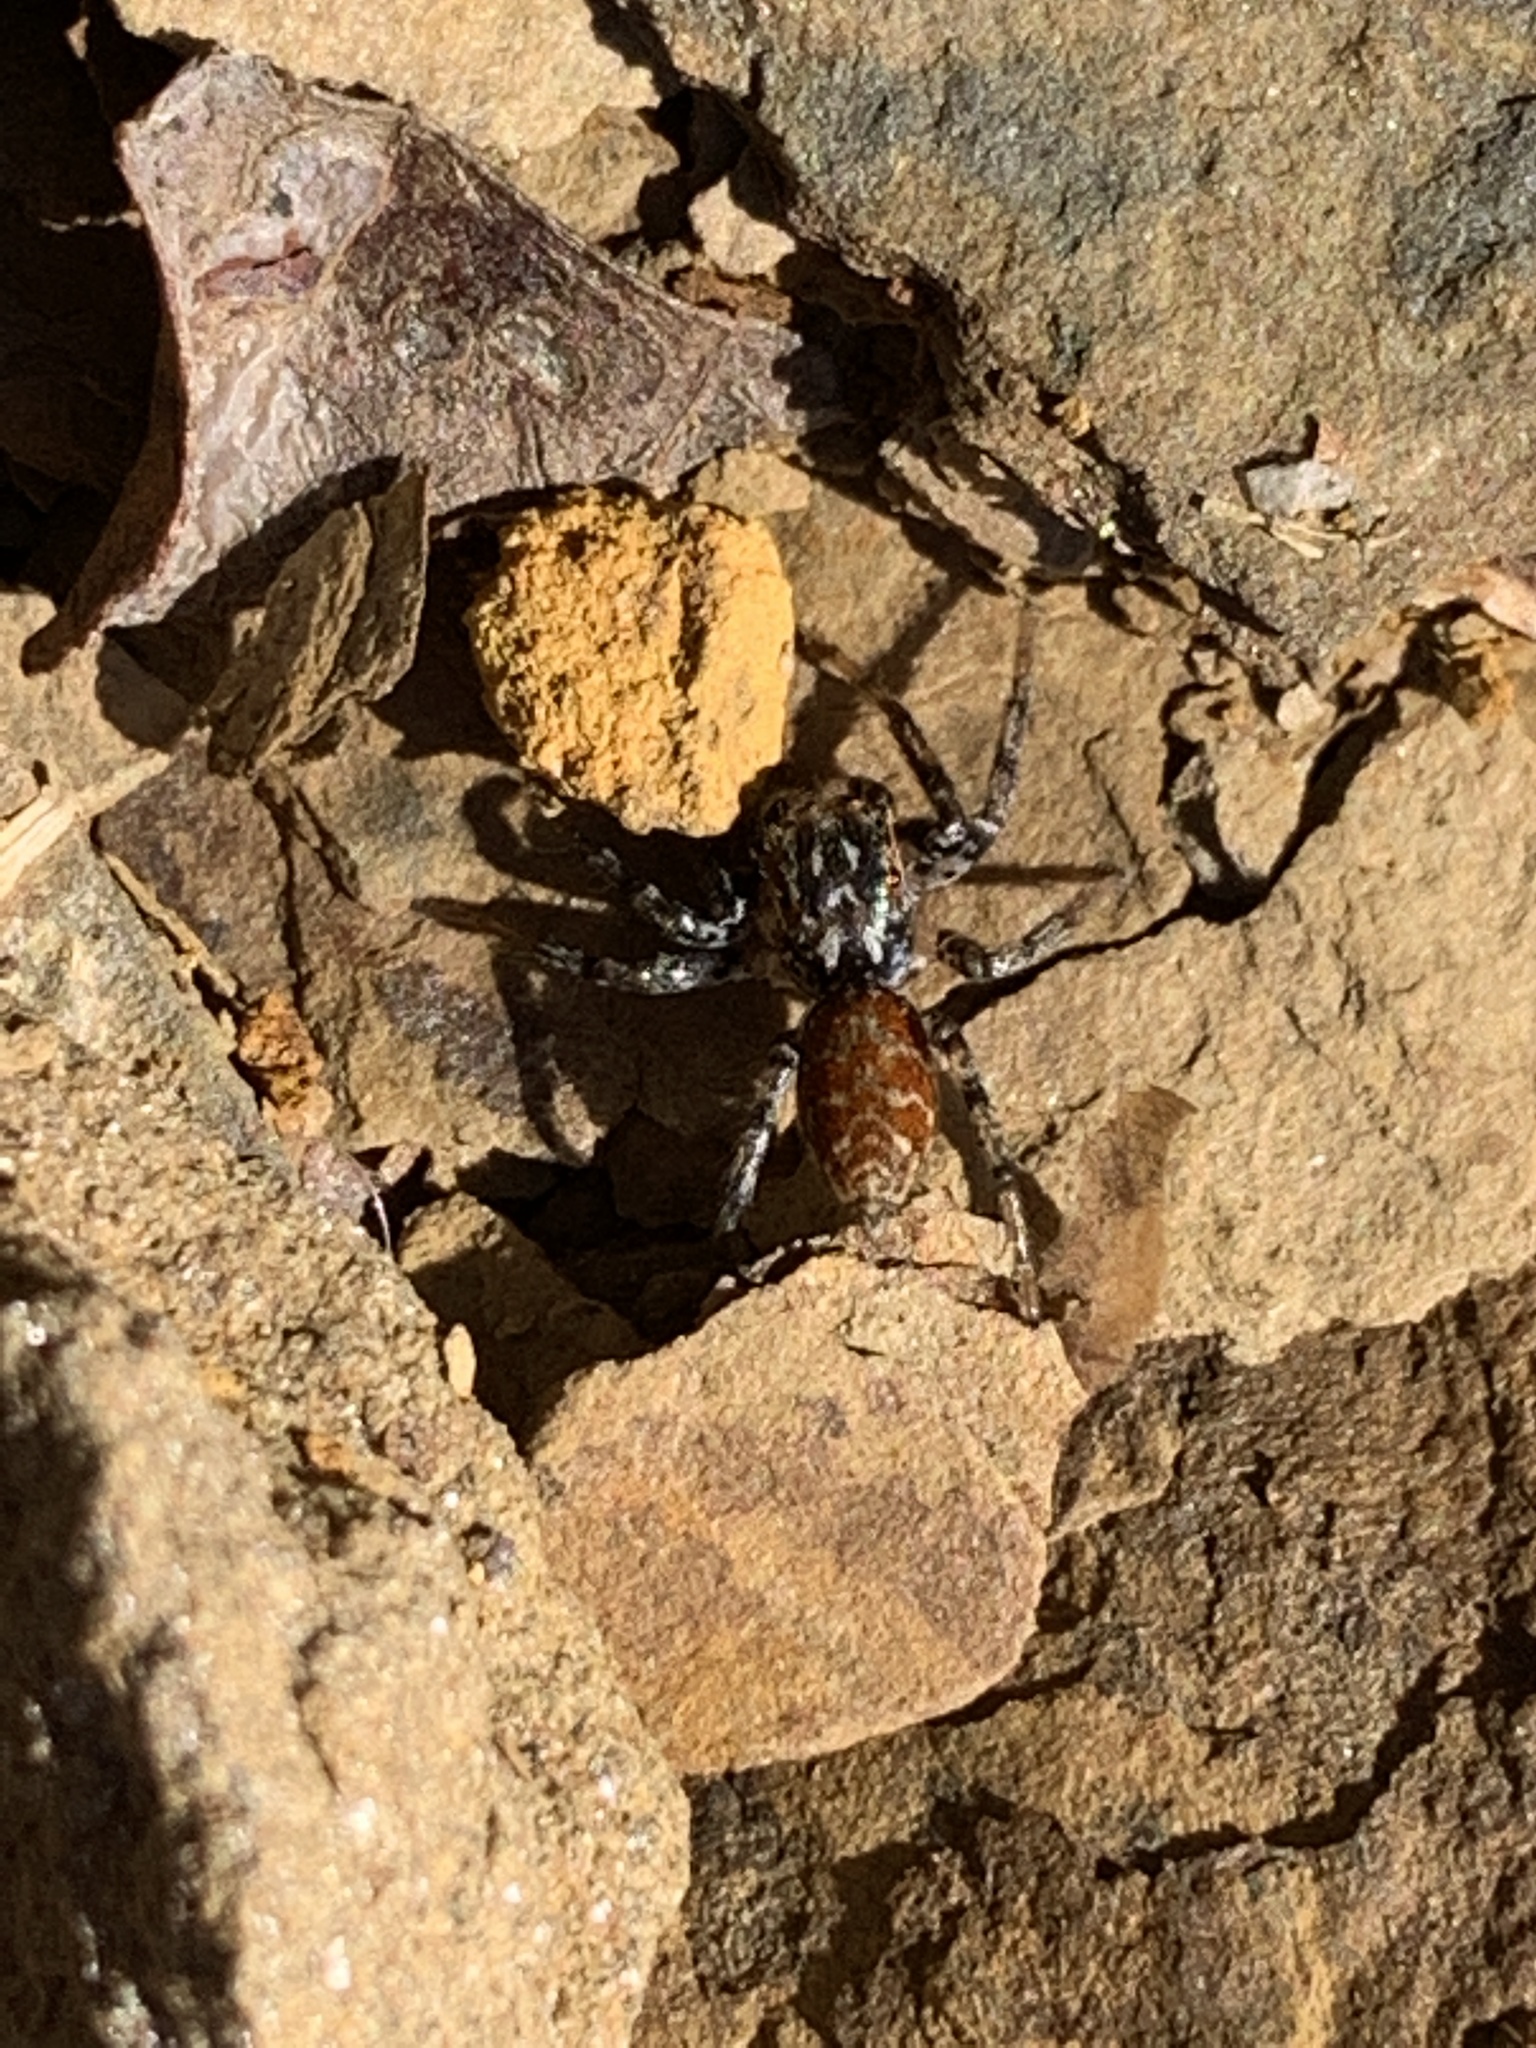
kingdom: Animalia
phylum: Arthropoda
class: Arachnida
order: Araneae
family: Salticidae
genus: Maevia
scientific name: Maevia inclemens
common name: Dimorphic jumper
